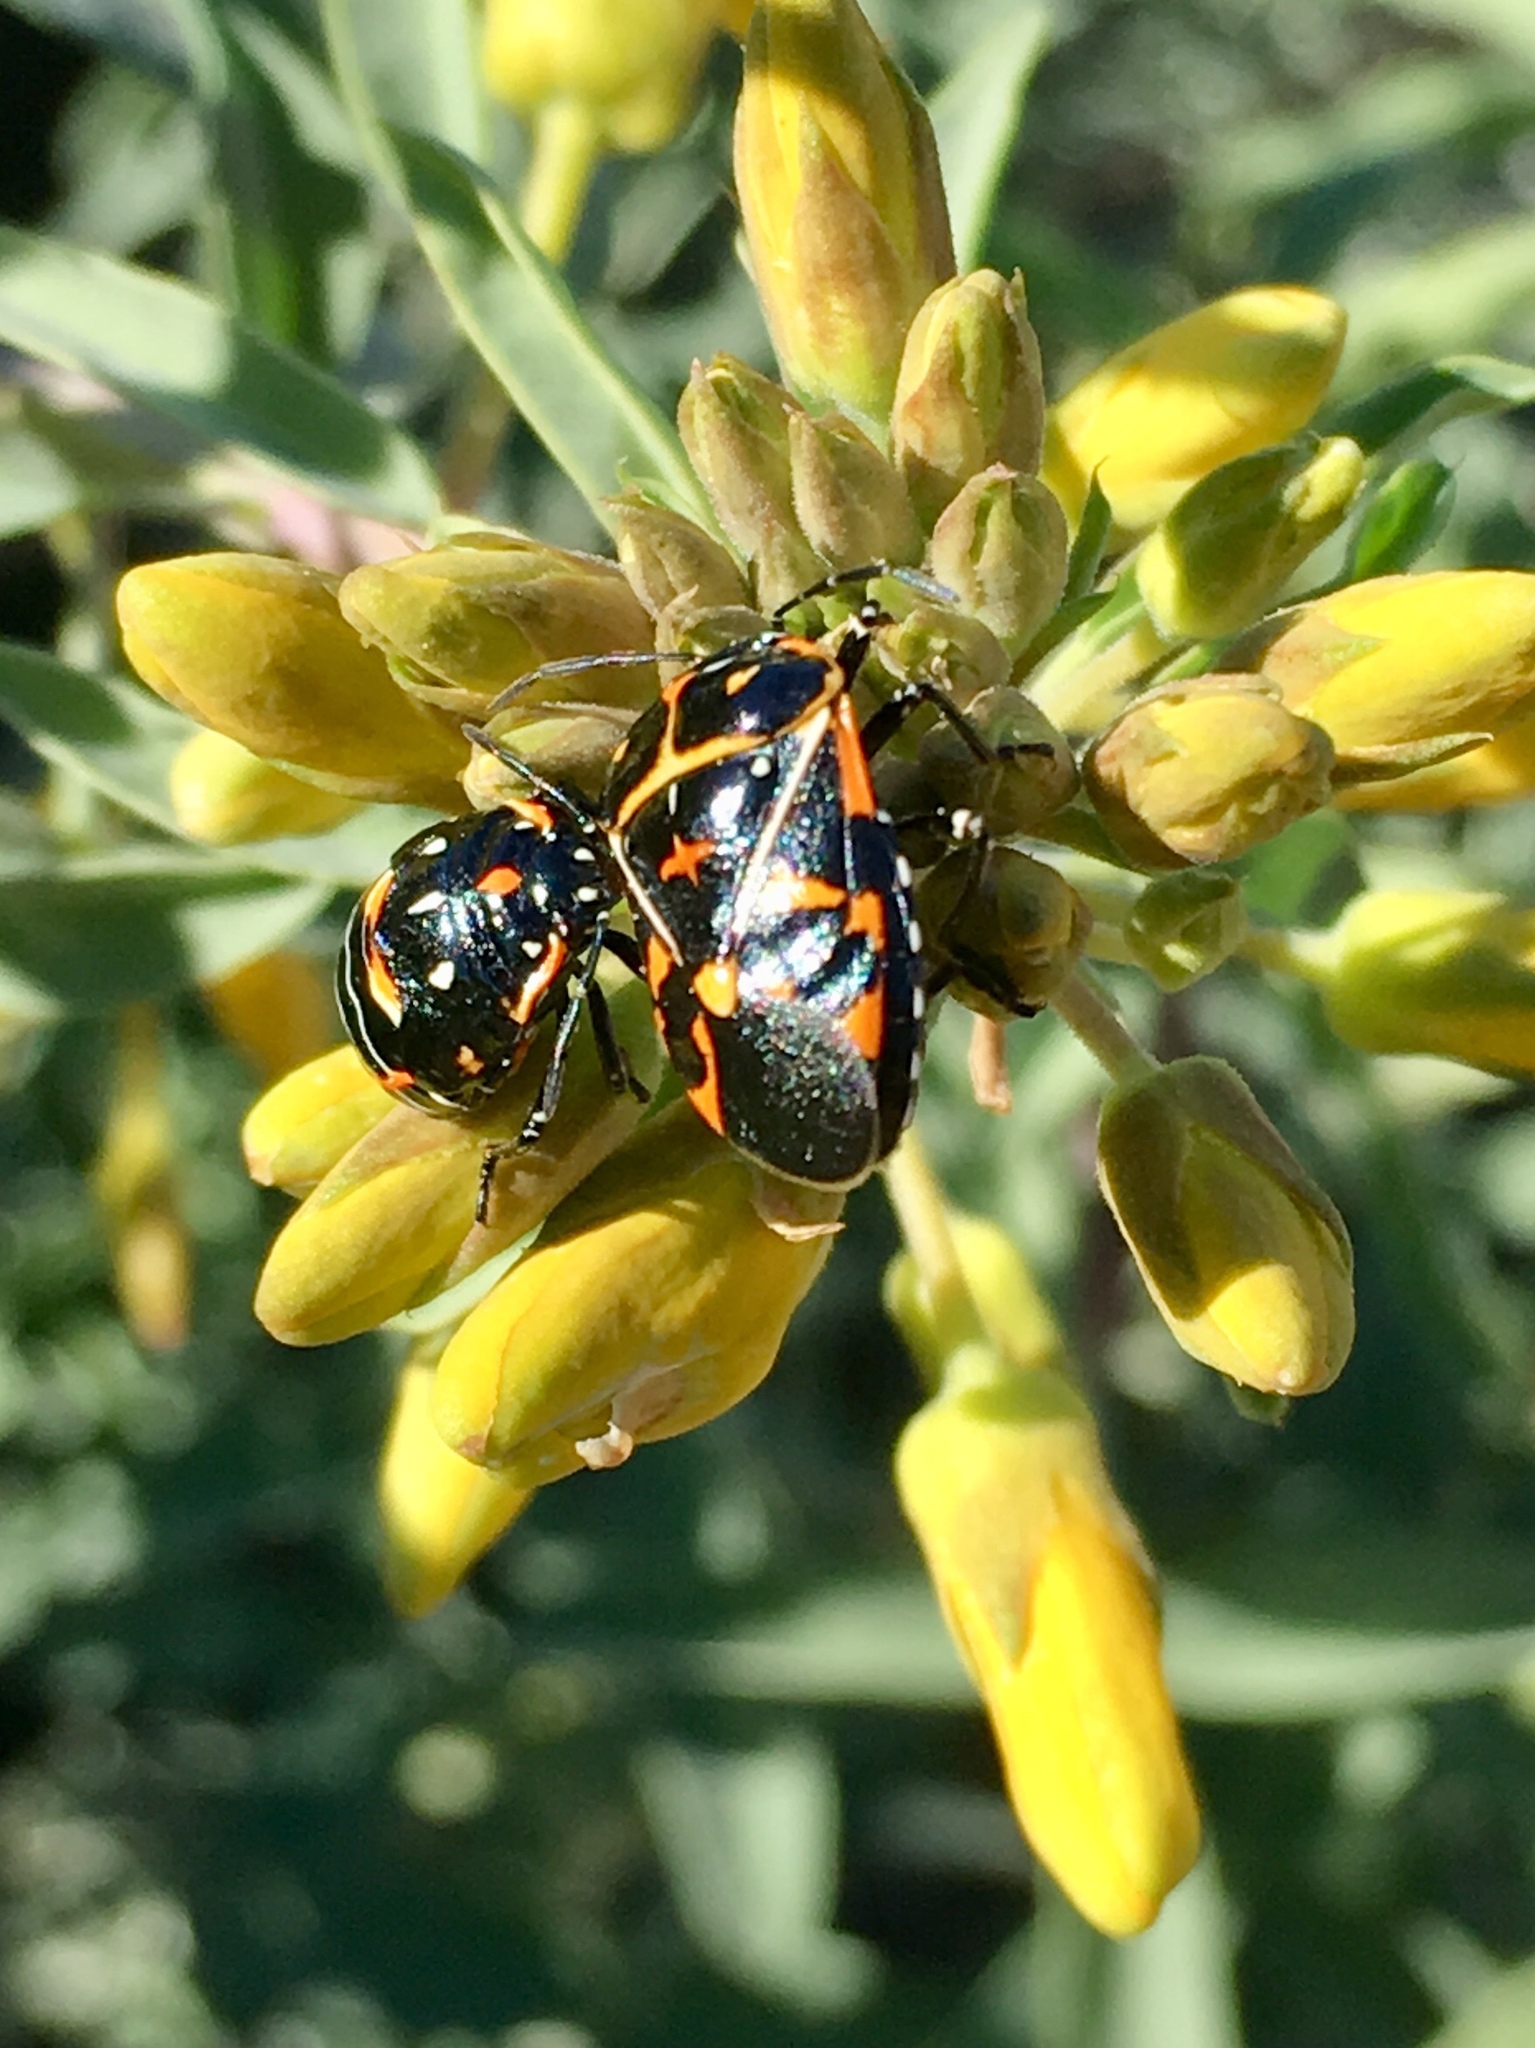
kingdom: Animalia
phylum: Arthropoda
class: Insecta
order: Hemiptera
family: Pentatomidae
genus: Murgantia
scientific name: Murgantia histrionica
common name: Harlequin bug
